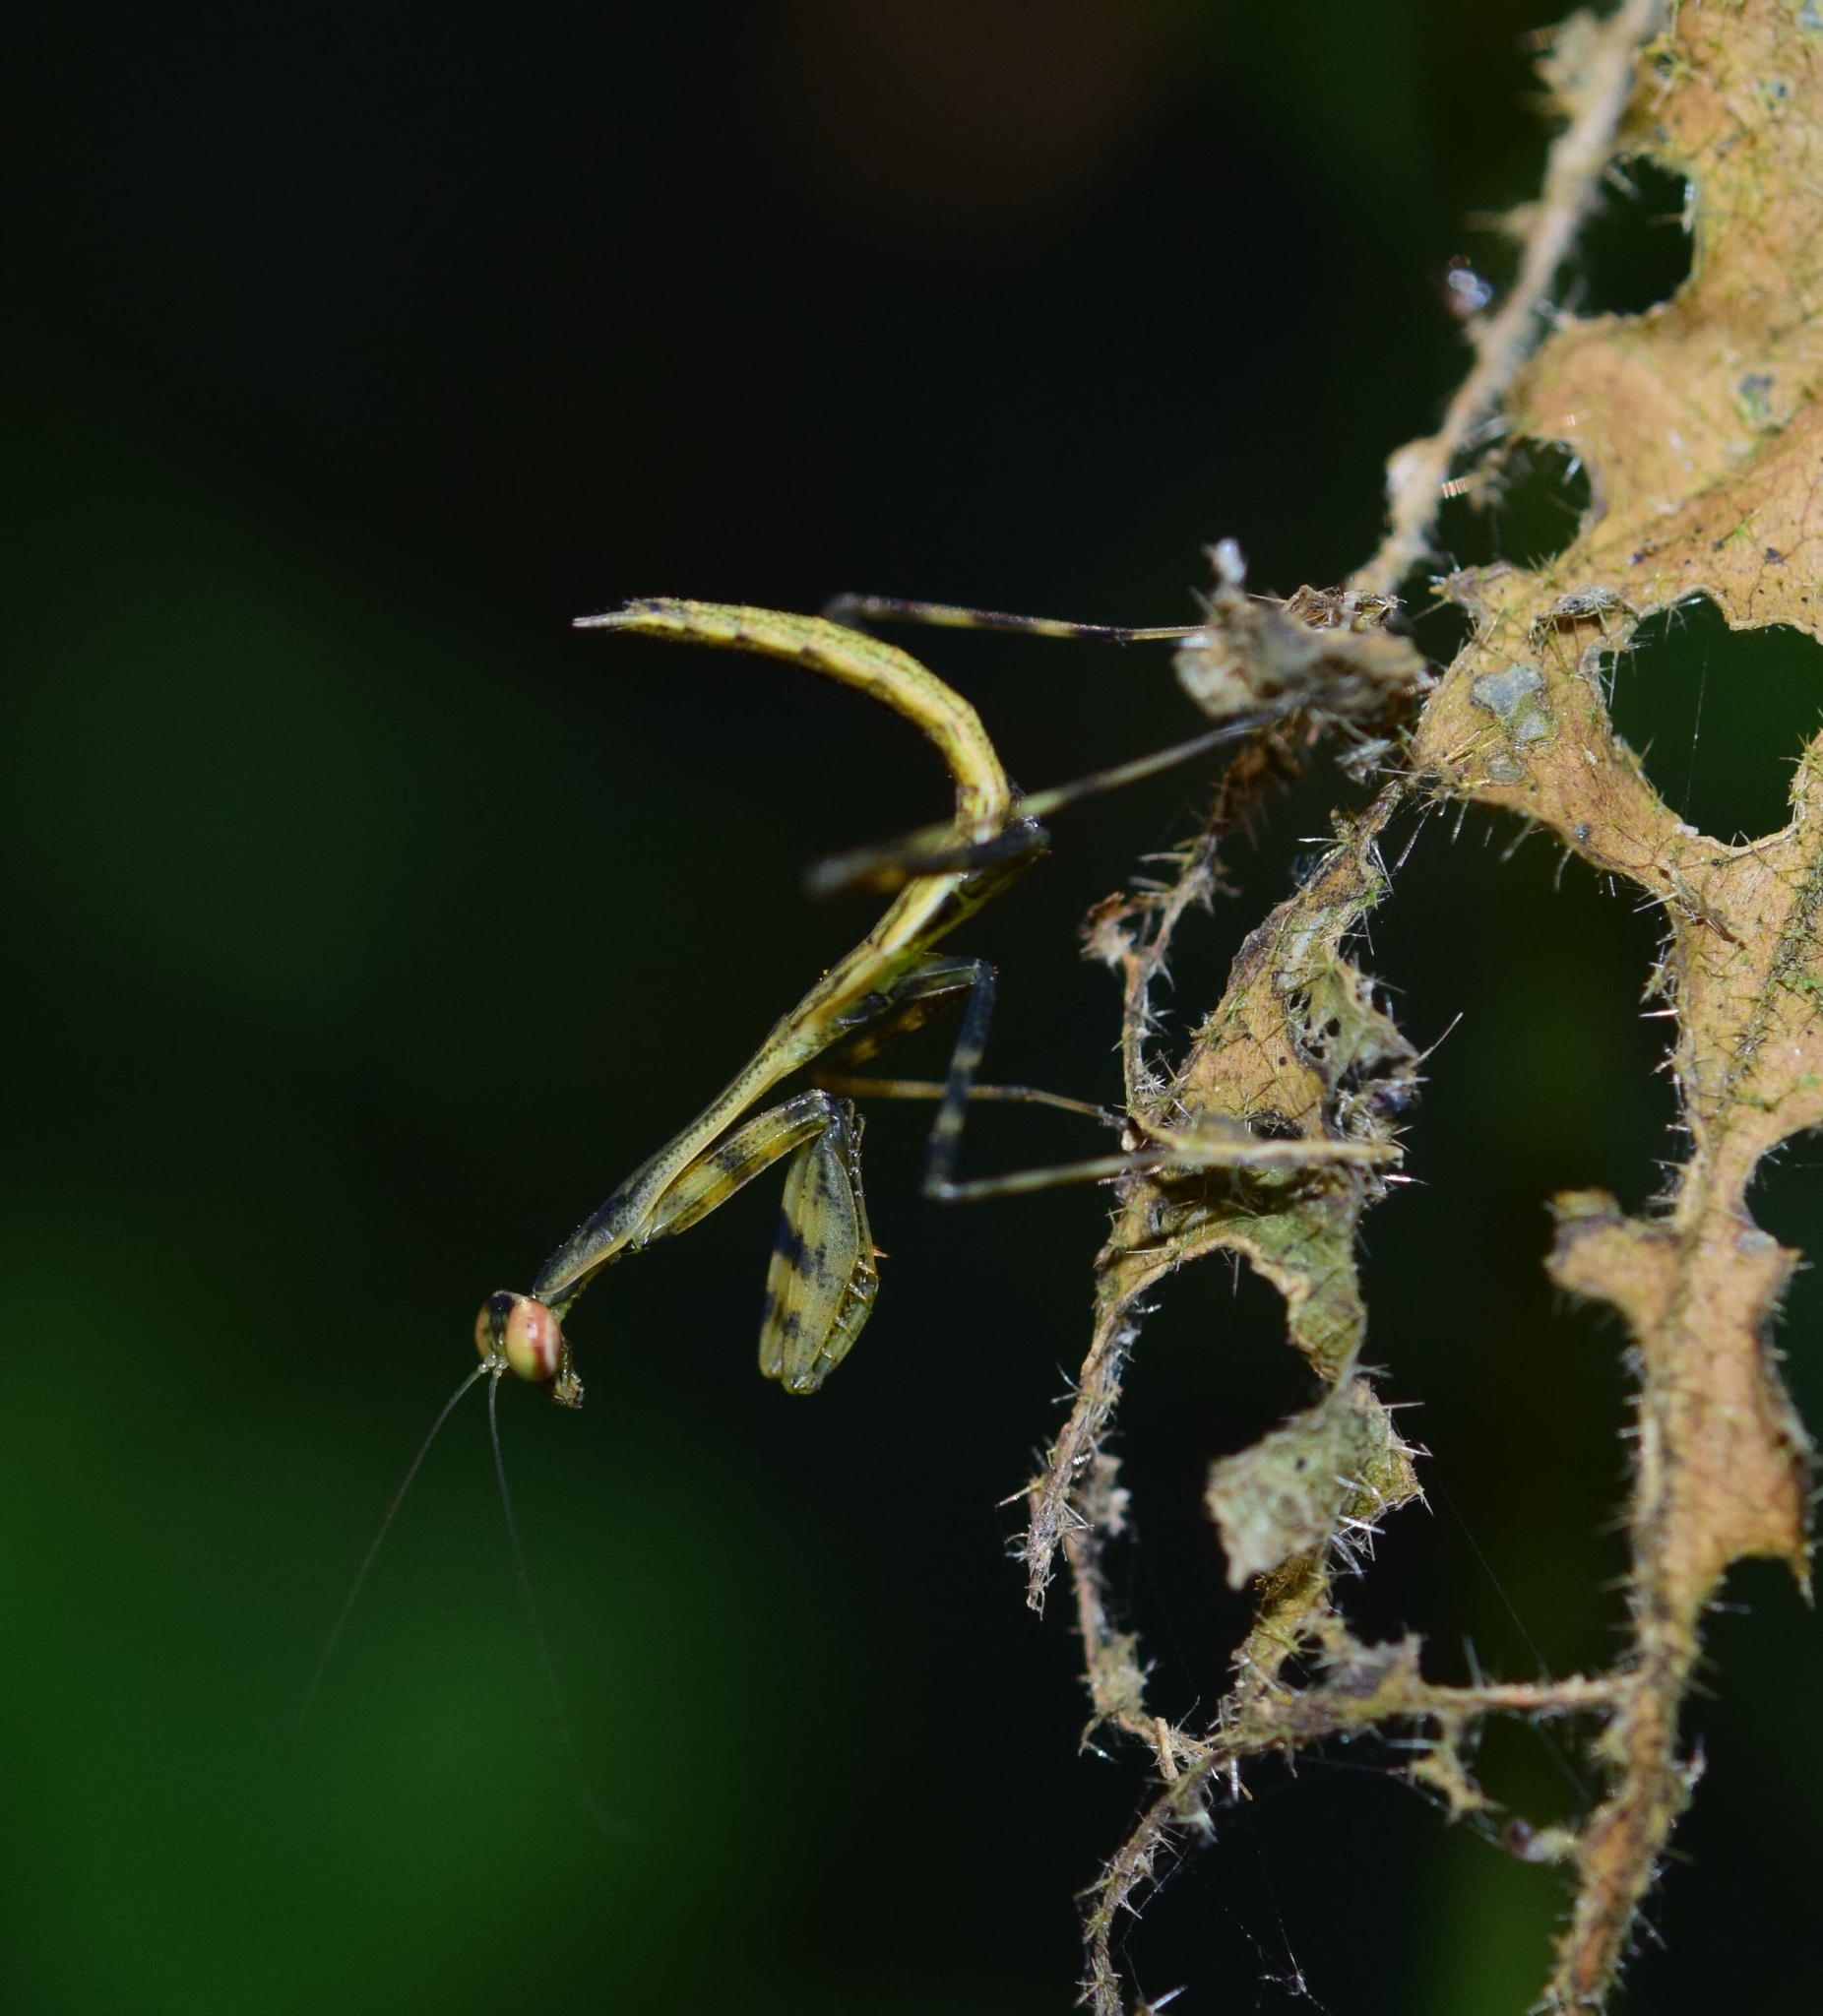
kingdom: Animalia
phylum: Arthropoda
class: Insecta
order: Mantodea
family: Miomantidae
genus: Miomantis
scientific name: Miomantis caffra
